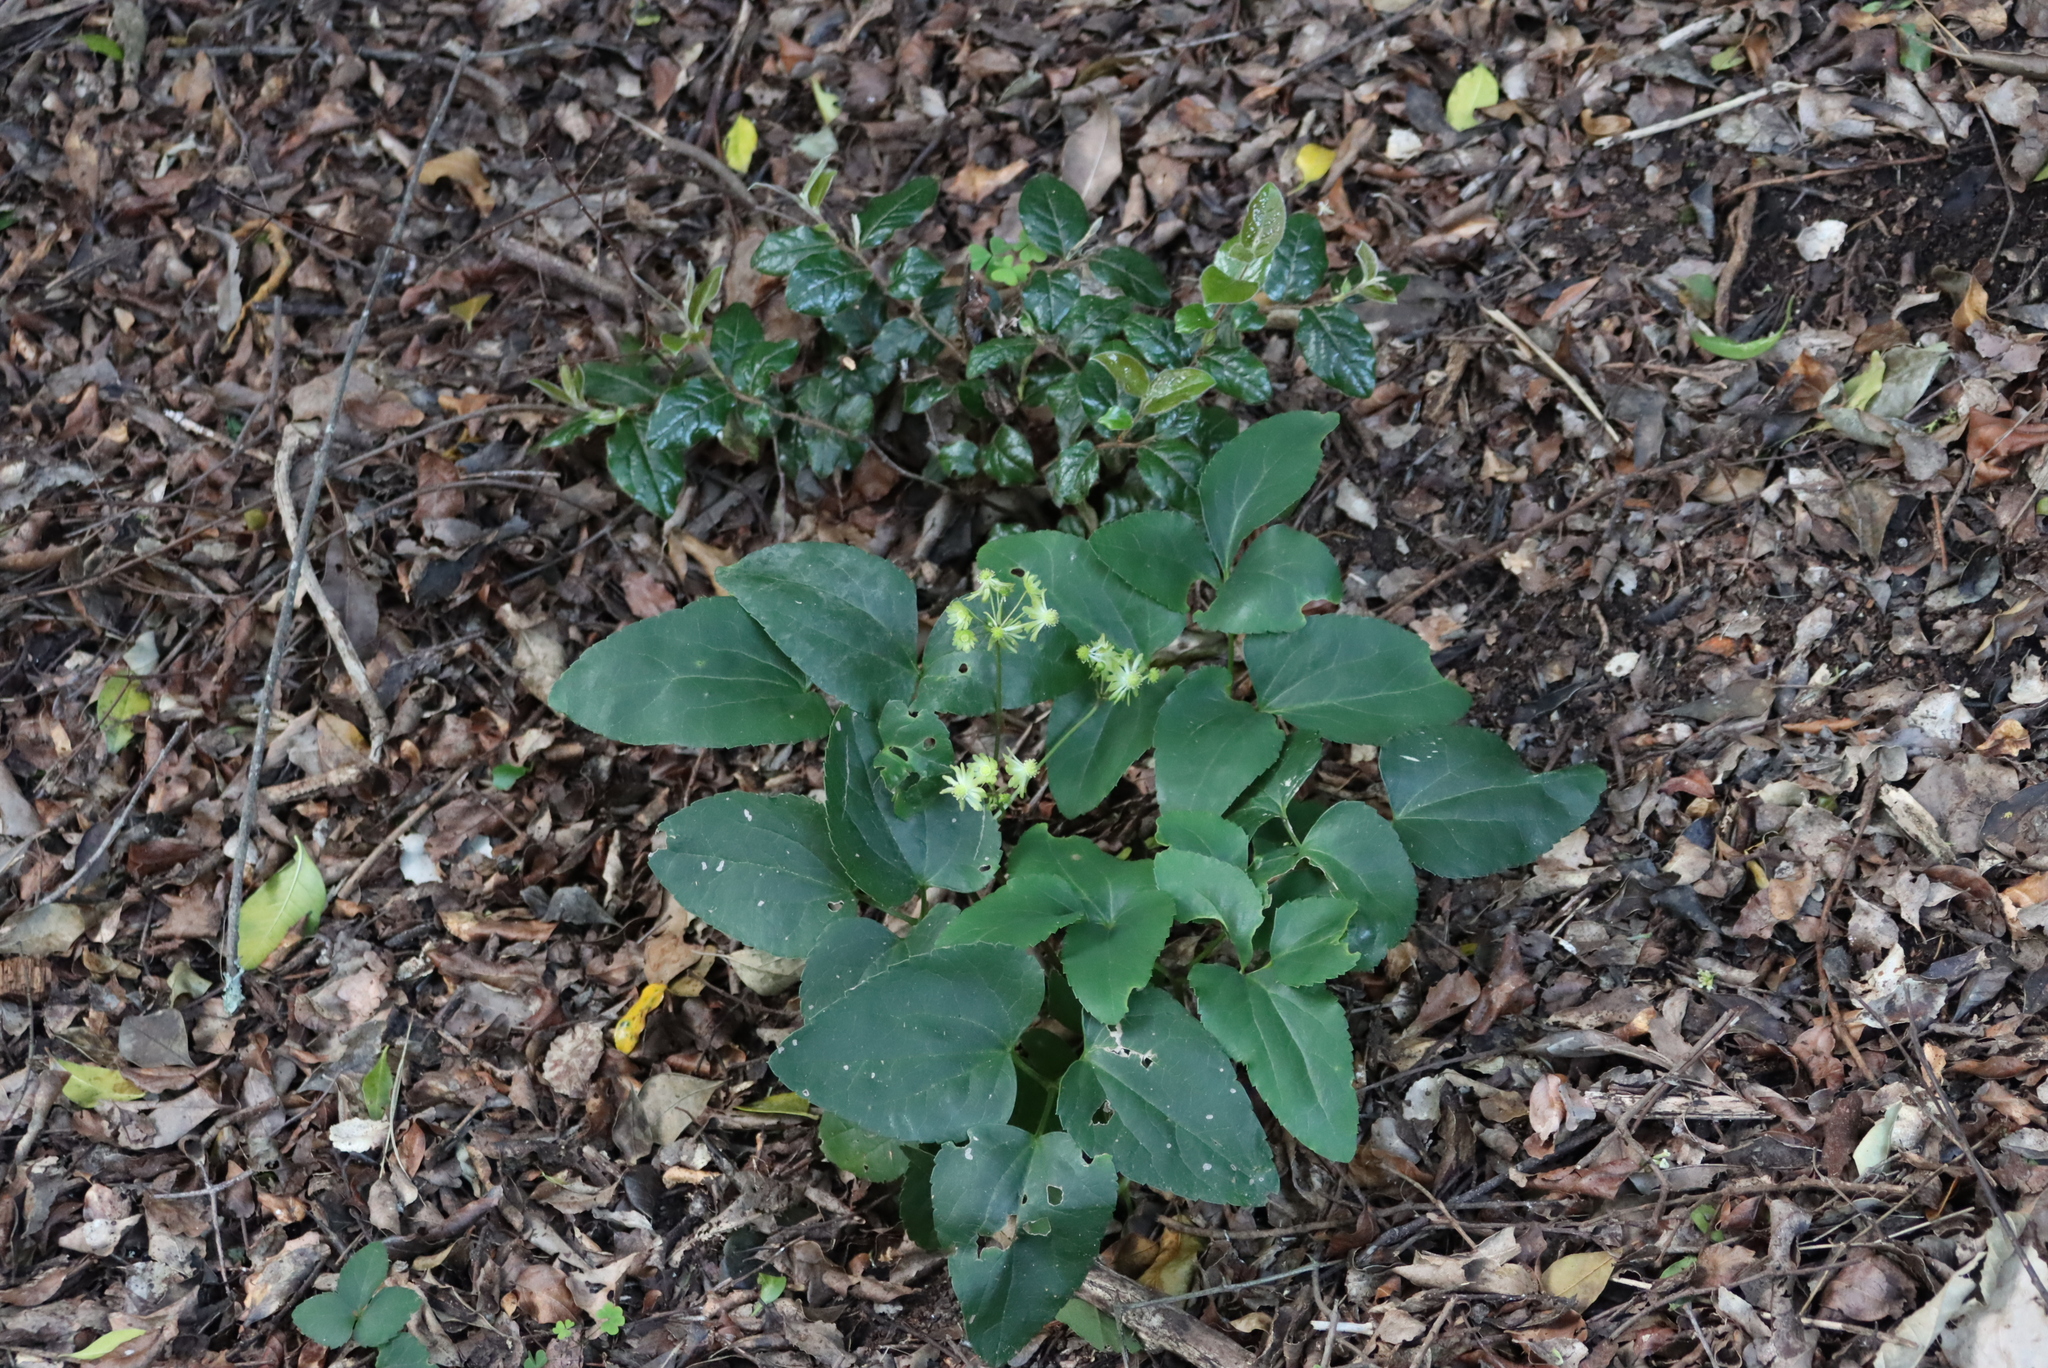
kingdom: Plantae
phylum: Tracheophyta
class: Magnoliopsida
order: Ranunculales
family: Ranunculaceae
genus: Knowltonia
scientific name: Knowltonia vesicatoria
